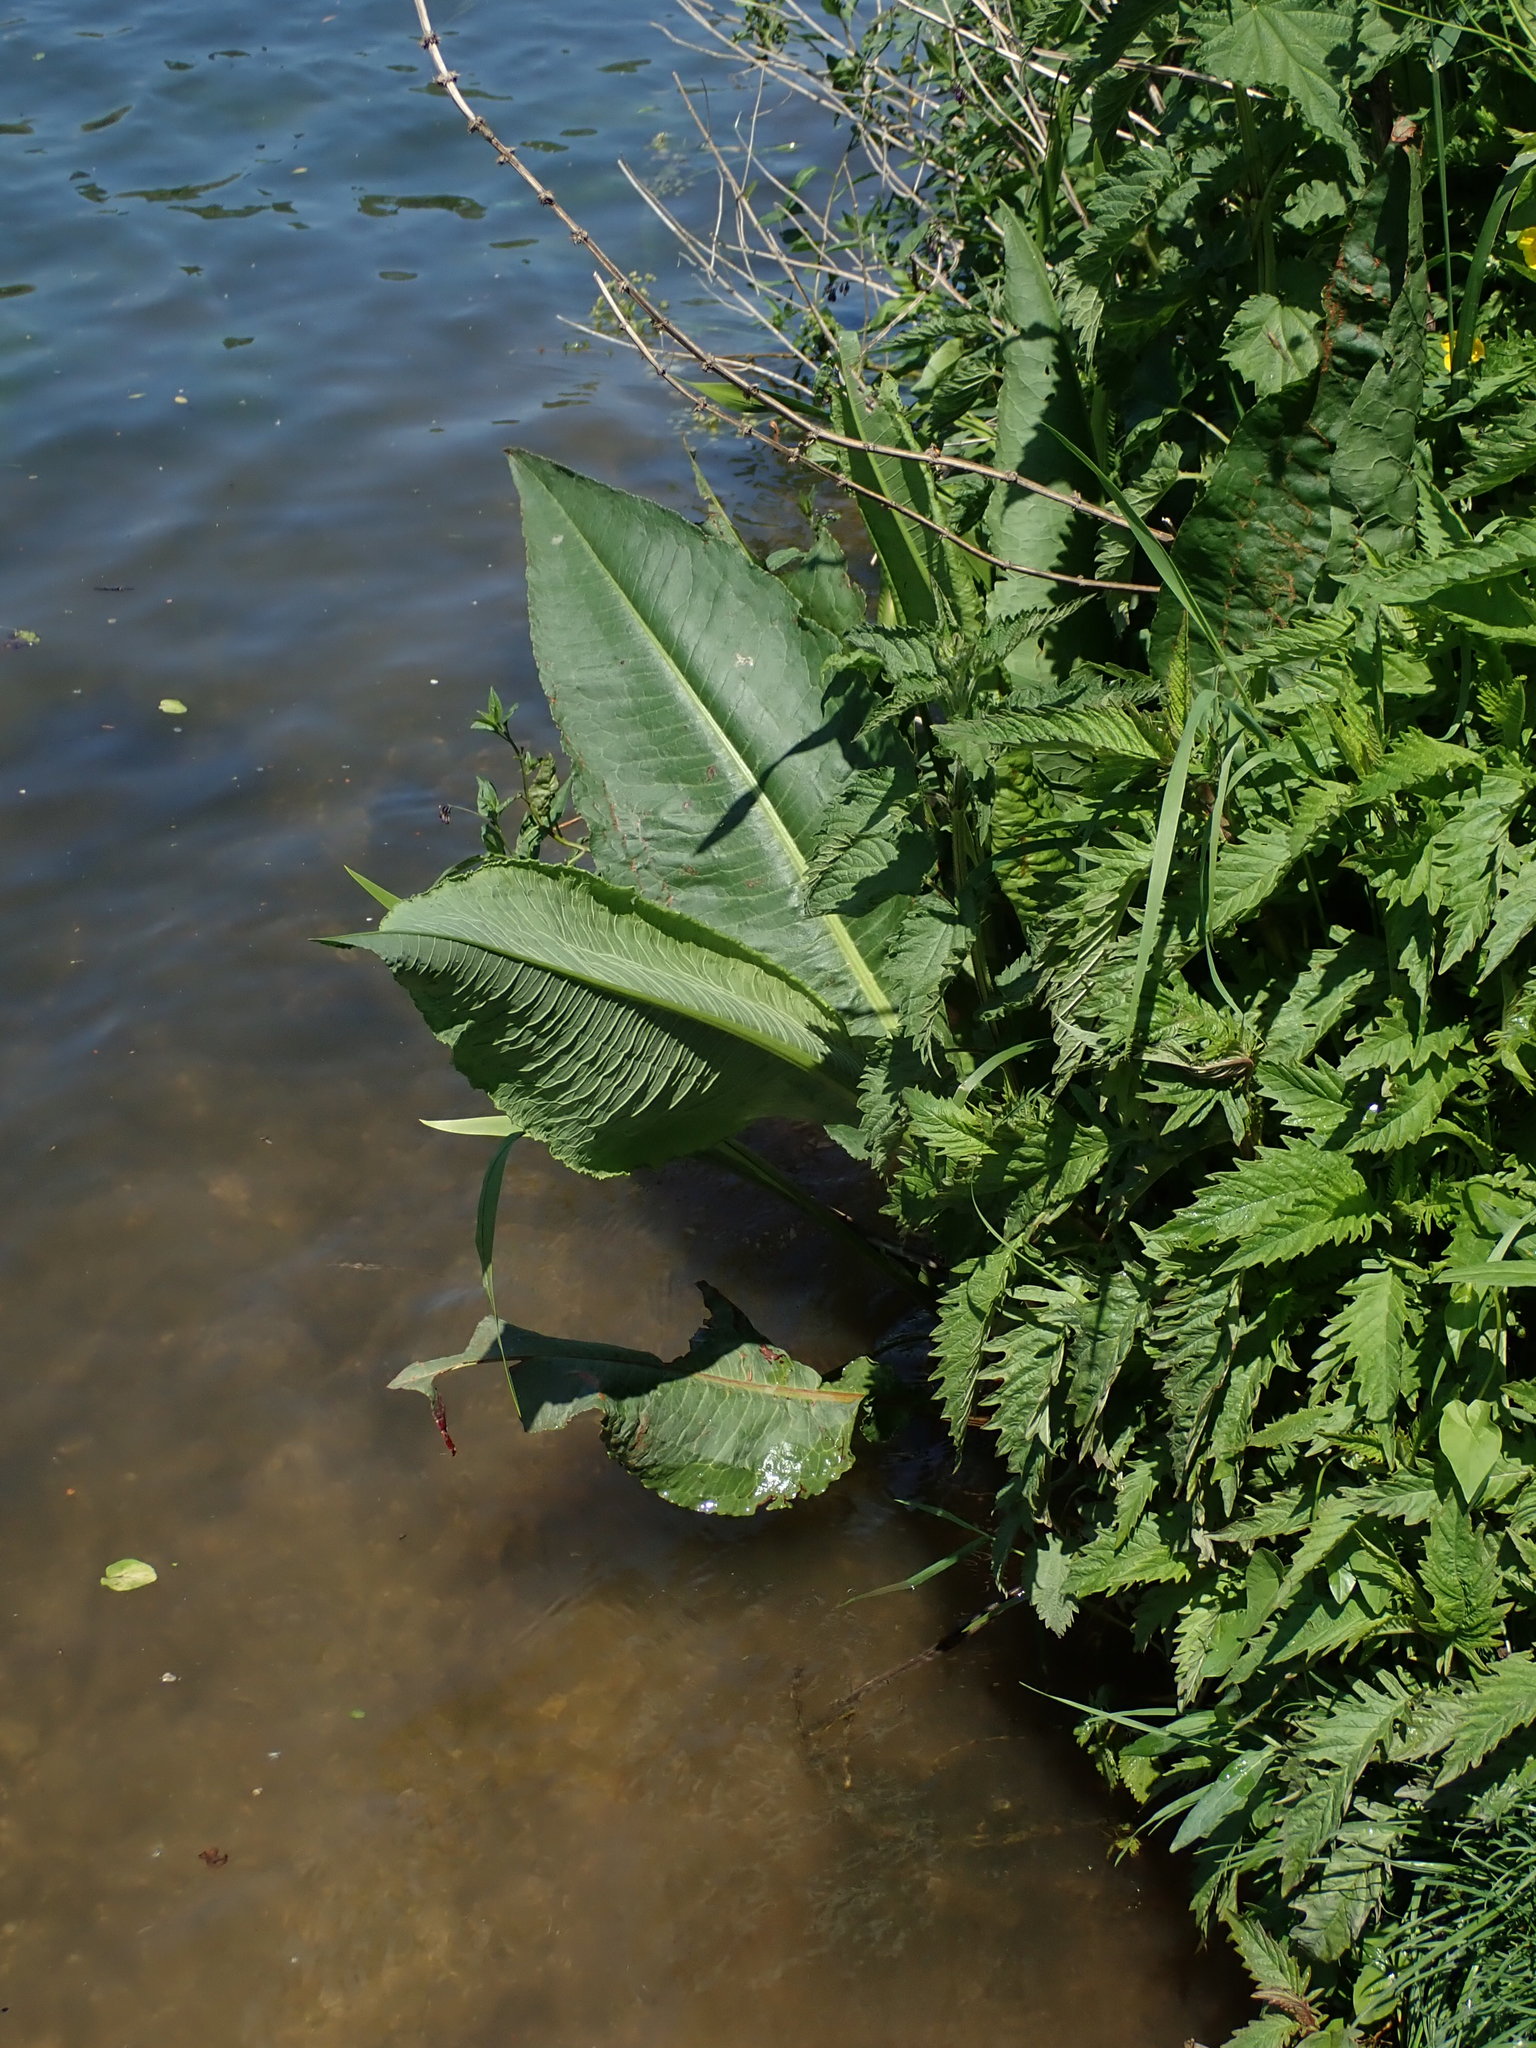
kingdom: Plantae
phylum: Tracheophyta
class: Magnoliopsida
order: Caryophyllales
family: Polygonaceae
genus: Rumex
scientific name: Rumex hydrolapathum
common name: Water dock
